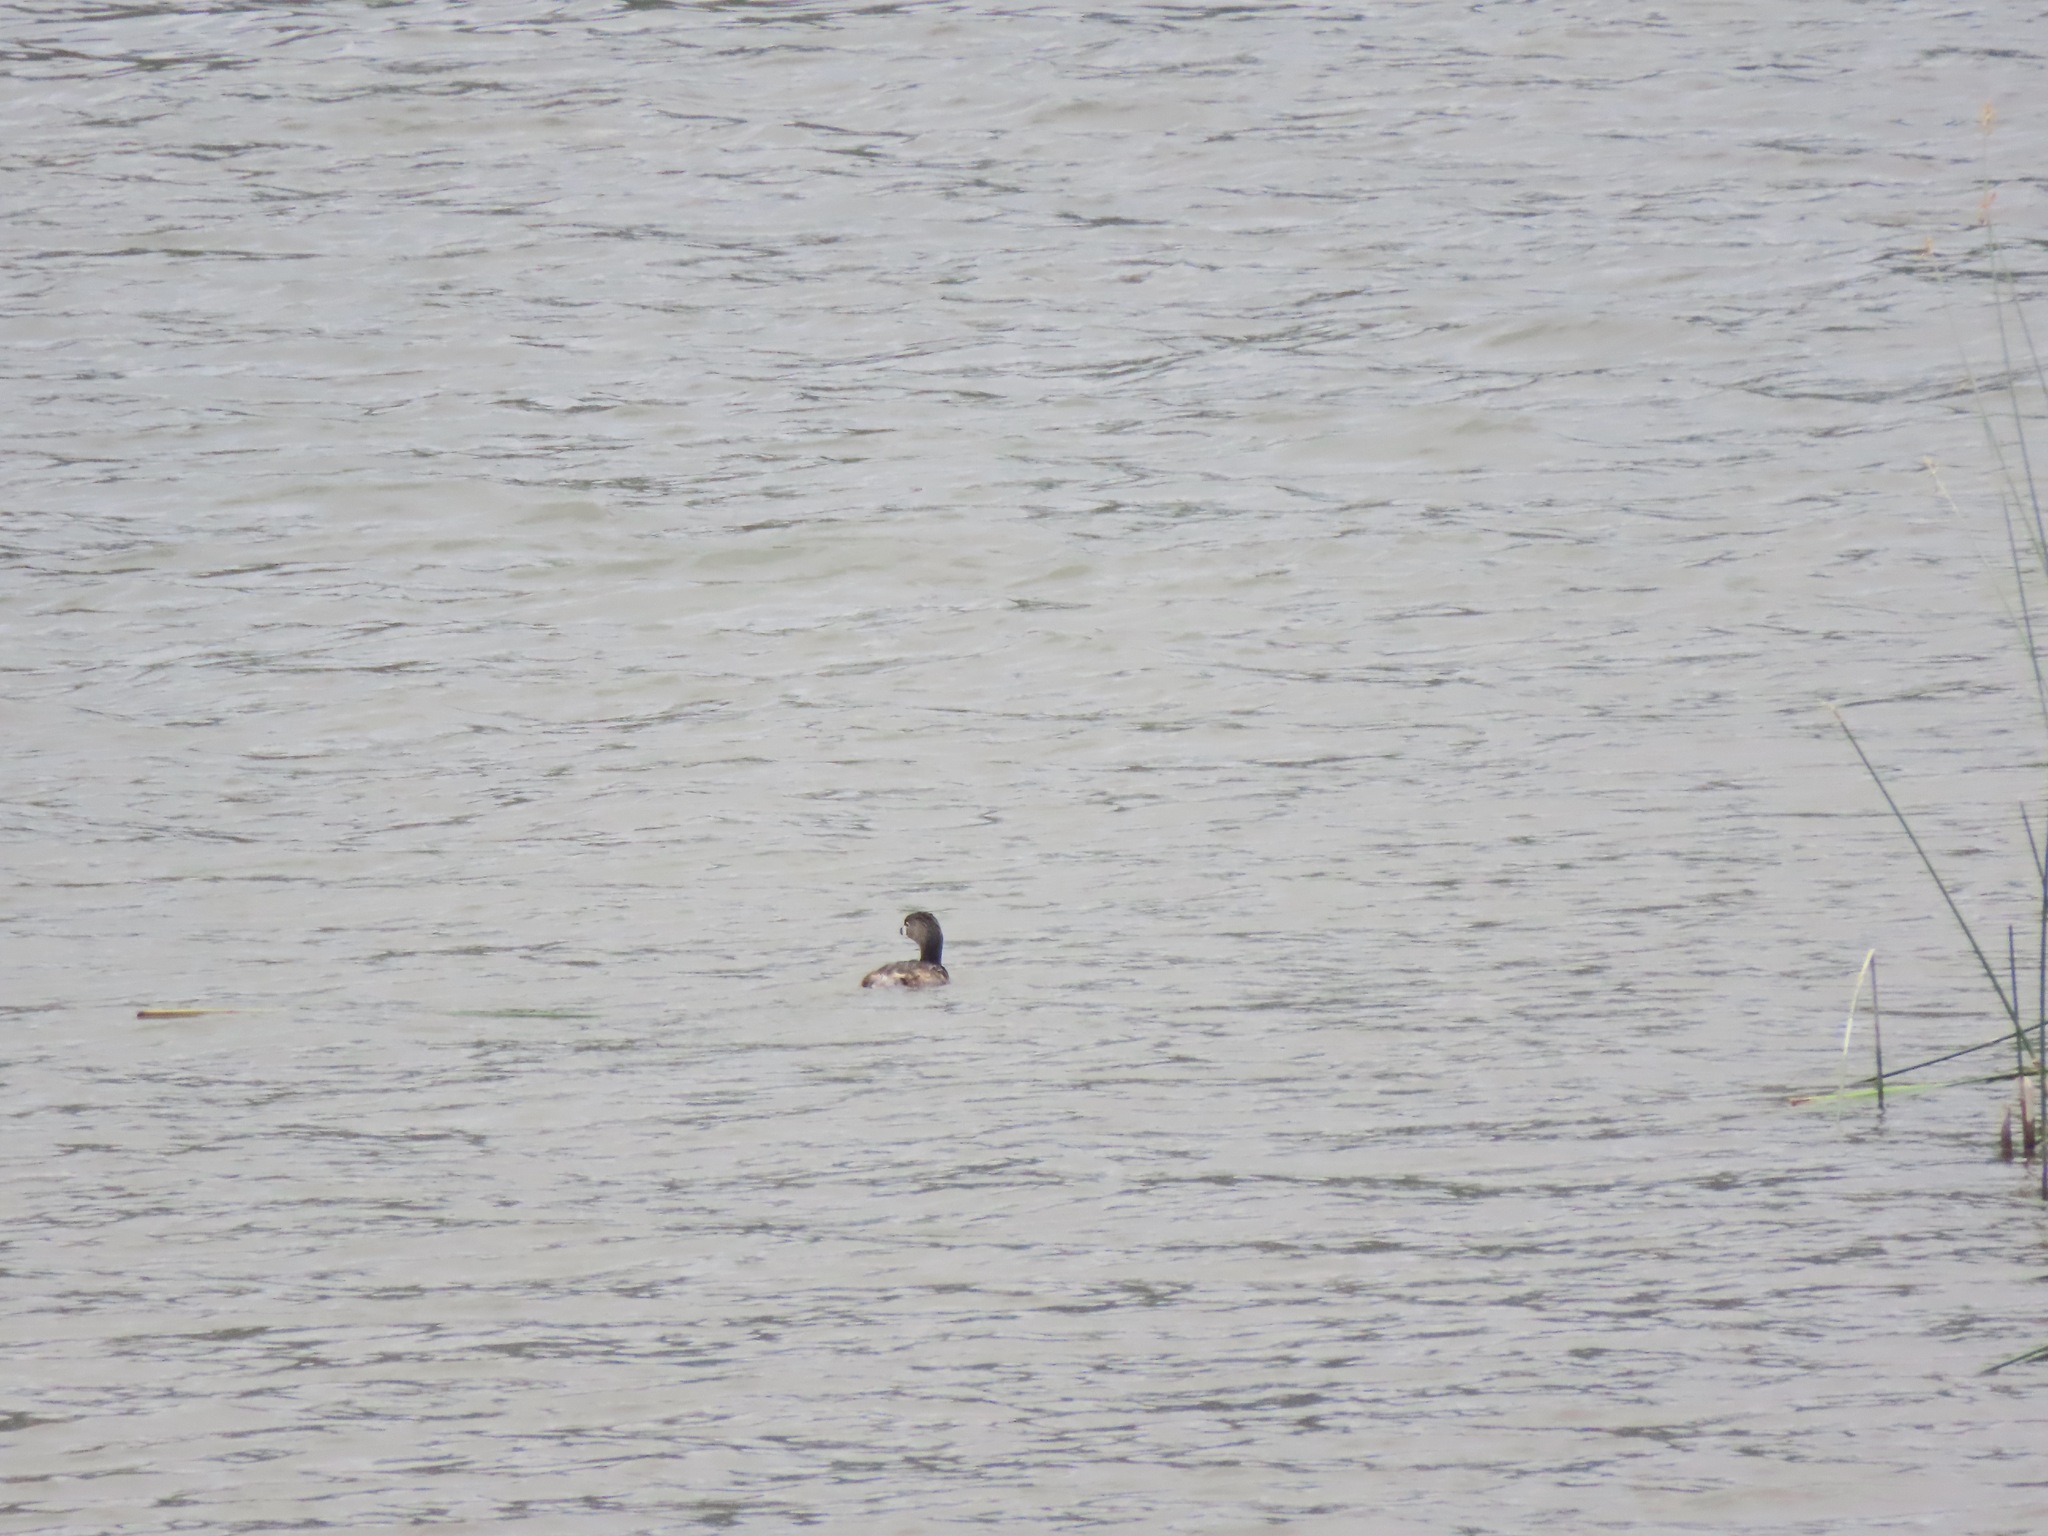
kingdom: Animalia
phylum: Chordata
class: Aves
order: Podicipediformes
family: Podicipedidae
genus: Podilymbus
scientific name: Podilymbus podiceps
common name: Pied-billed grebe
